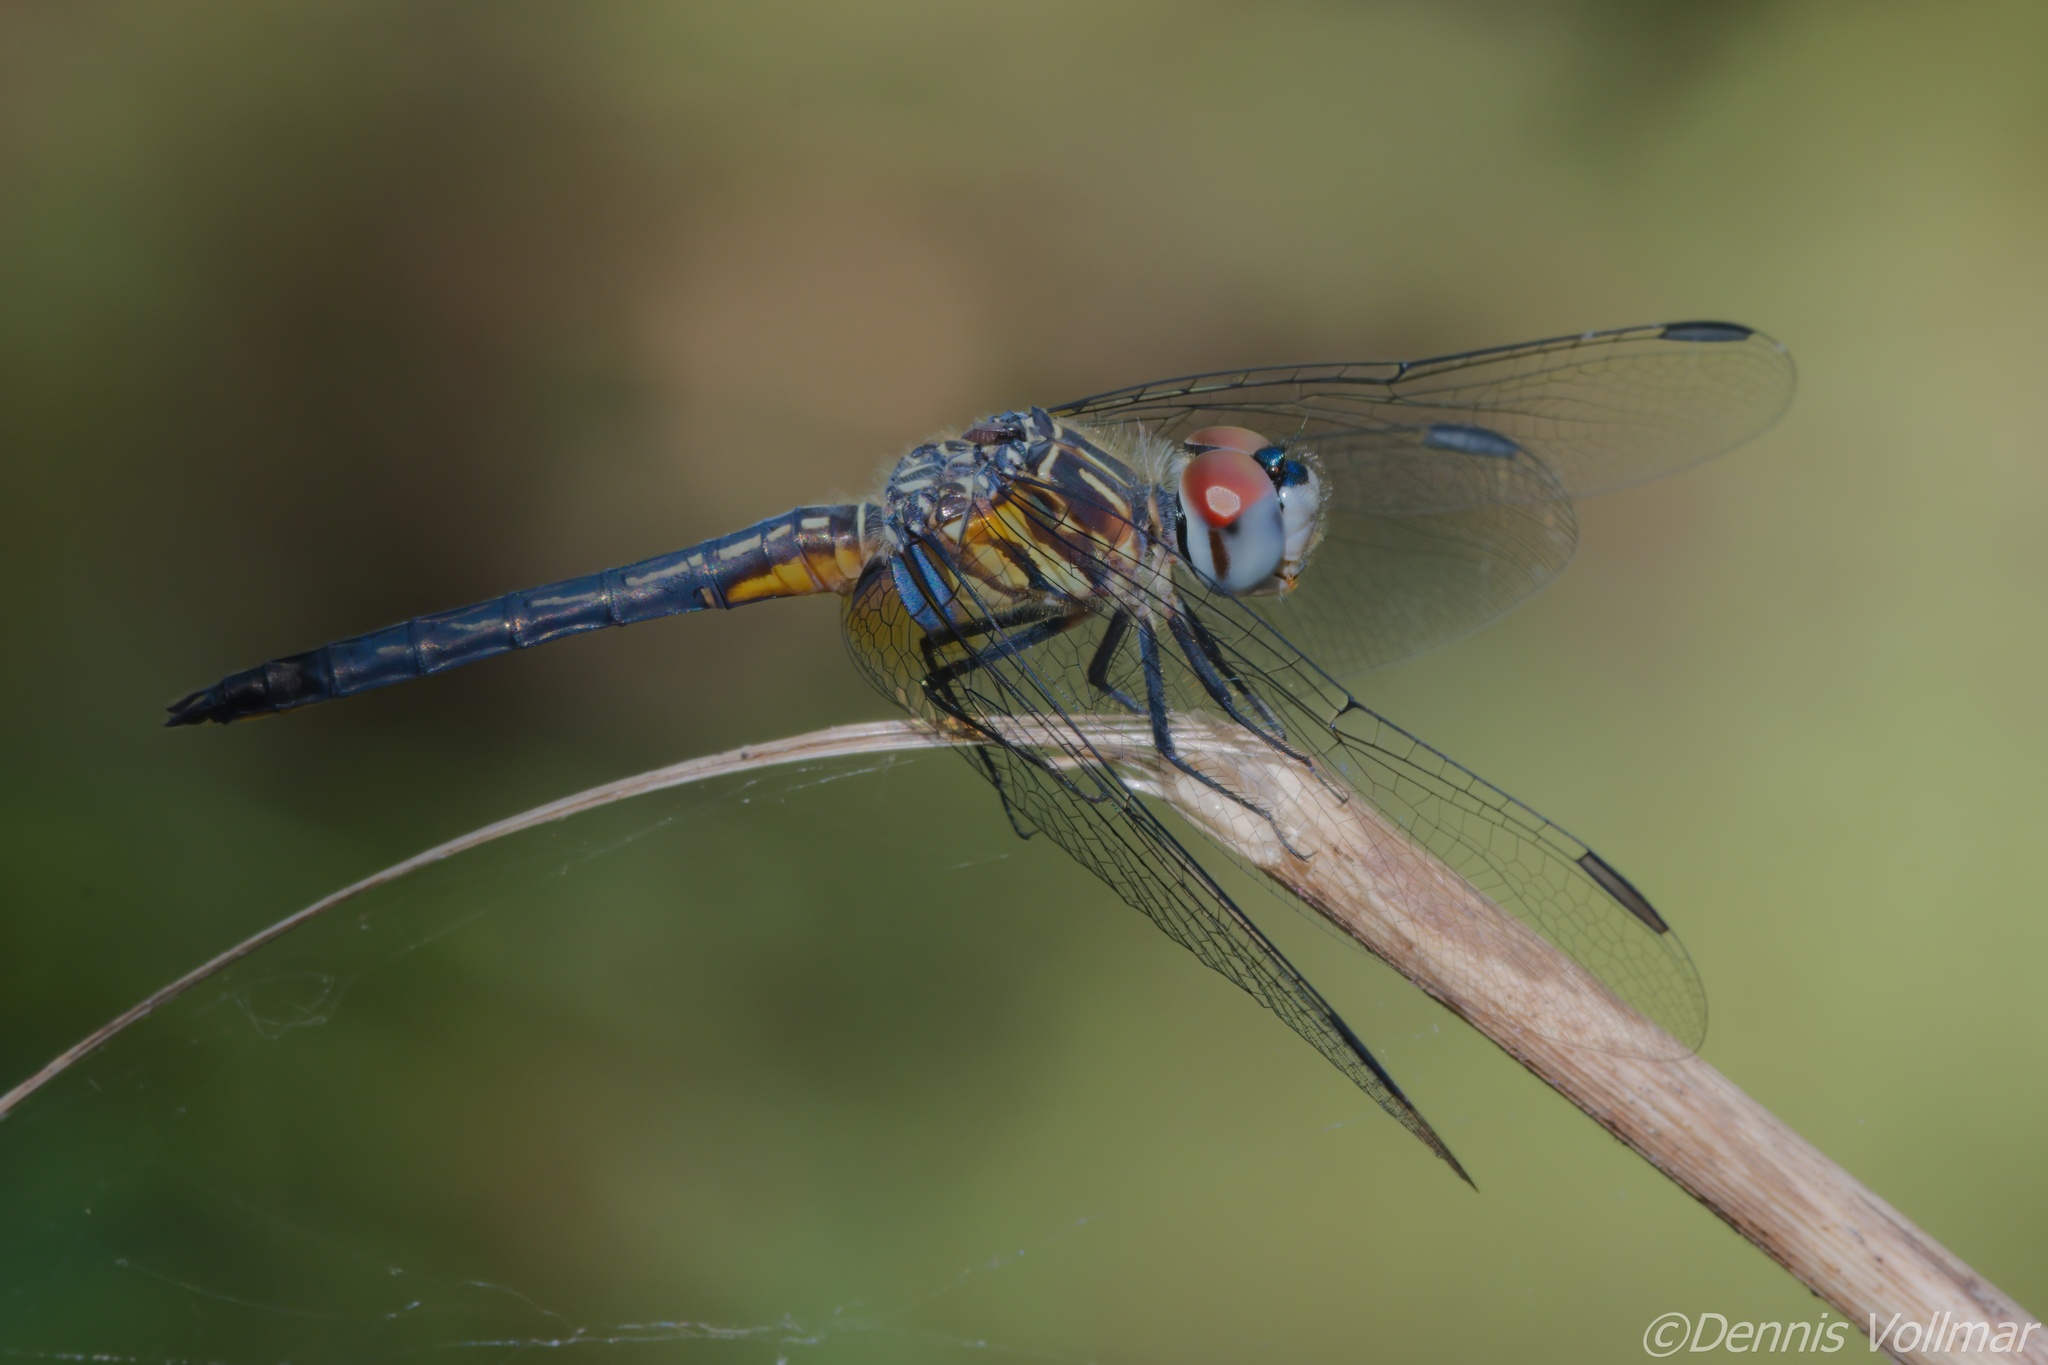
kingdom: Animalia
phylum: Arthropoda
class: Insecta
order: Odonata
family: Libellulidae
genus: Pachydiplax
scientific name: Pachydiplax longipennis
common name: Blue dasher
